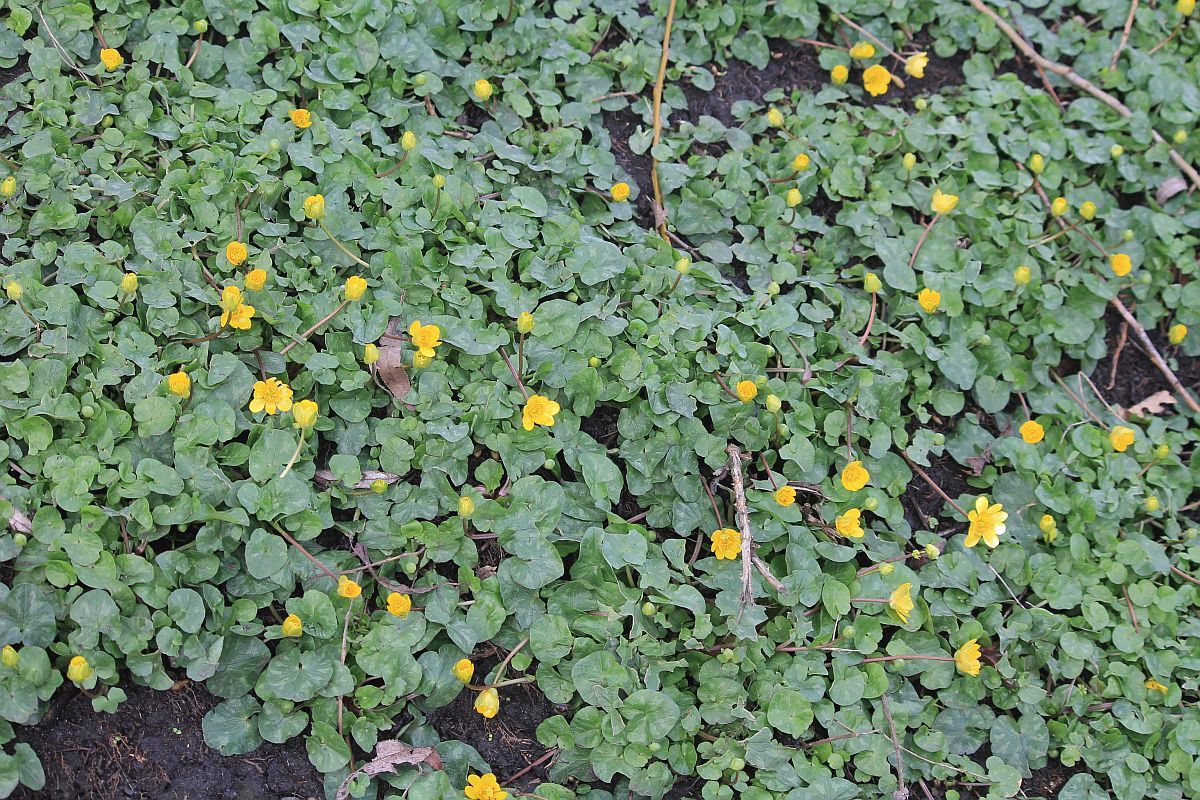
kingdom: Plantae
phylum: Tracheophyta
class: Magnoliopsida
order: Ranunculales
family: Ranunculaceae
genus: Ficaria
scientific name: Ficaria verna
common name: Lesser celandine
